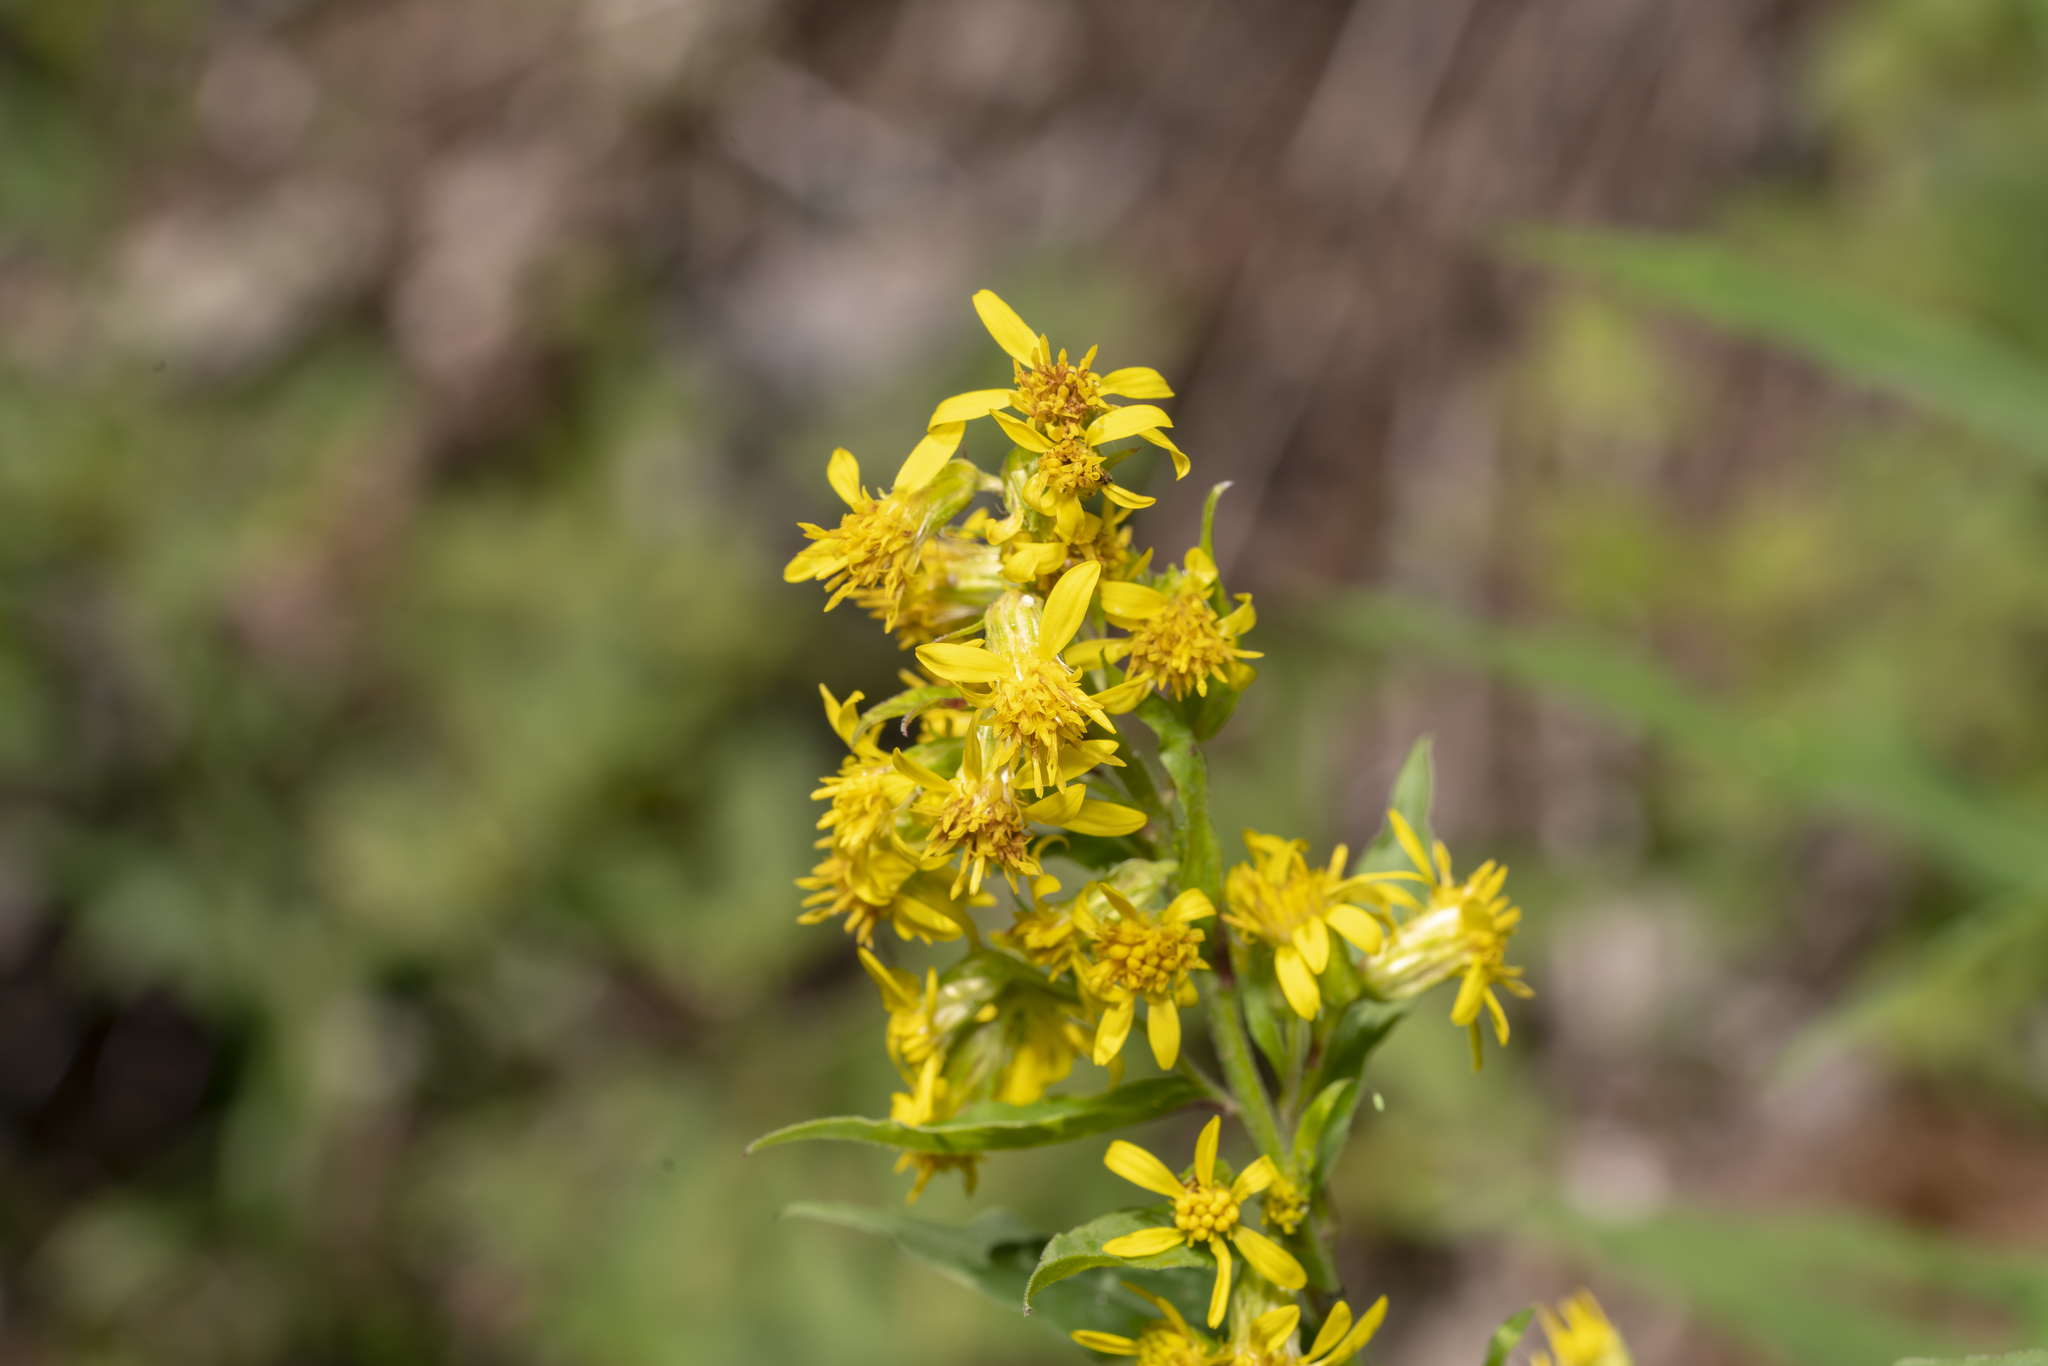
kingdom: Plantae
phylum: Tracheophyta
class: Magnoliopsida
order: Asterales
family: Asteraceae
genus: Solidago
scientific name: Solidago virgaurea
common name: Goldenrod
